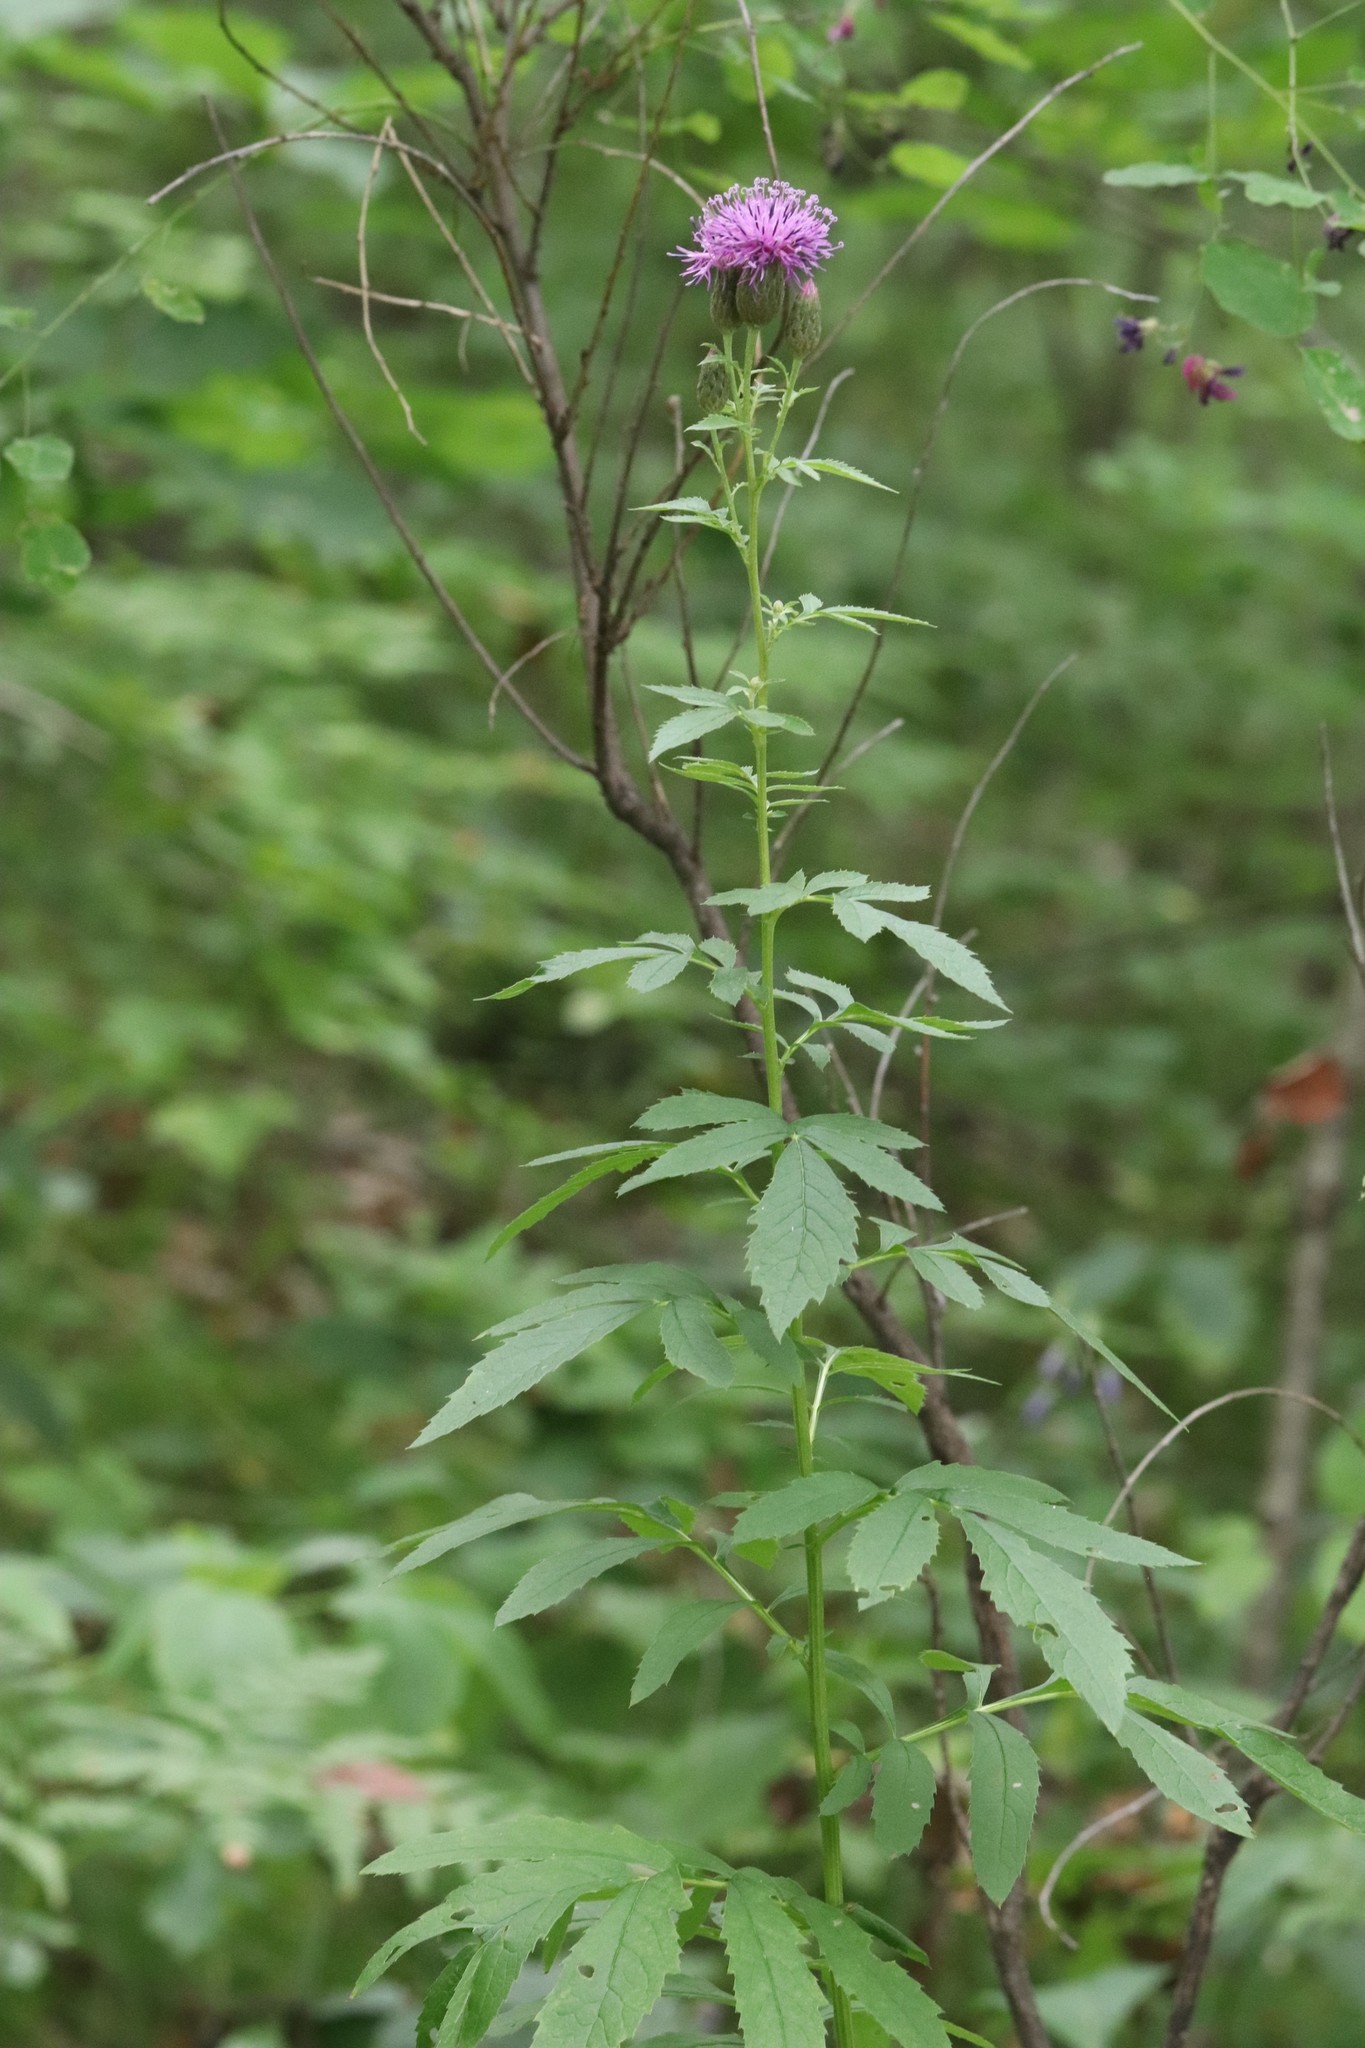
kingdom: Plantae
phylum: Tracheophyta
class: Magnoliopsida
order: Asterales
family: Asteraceae
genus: Serratula
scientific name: Serratula coronata
